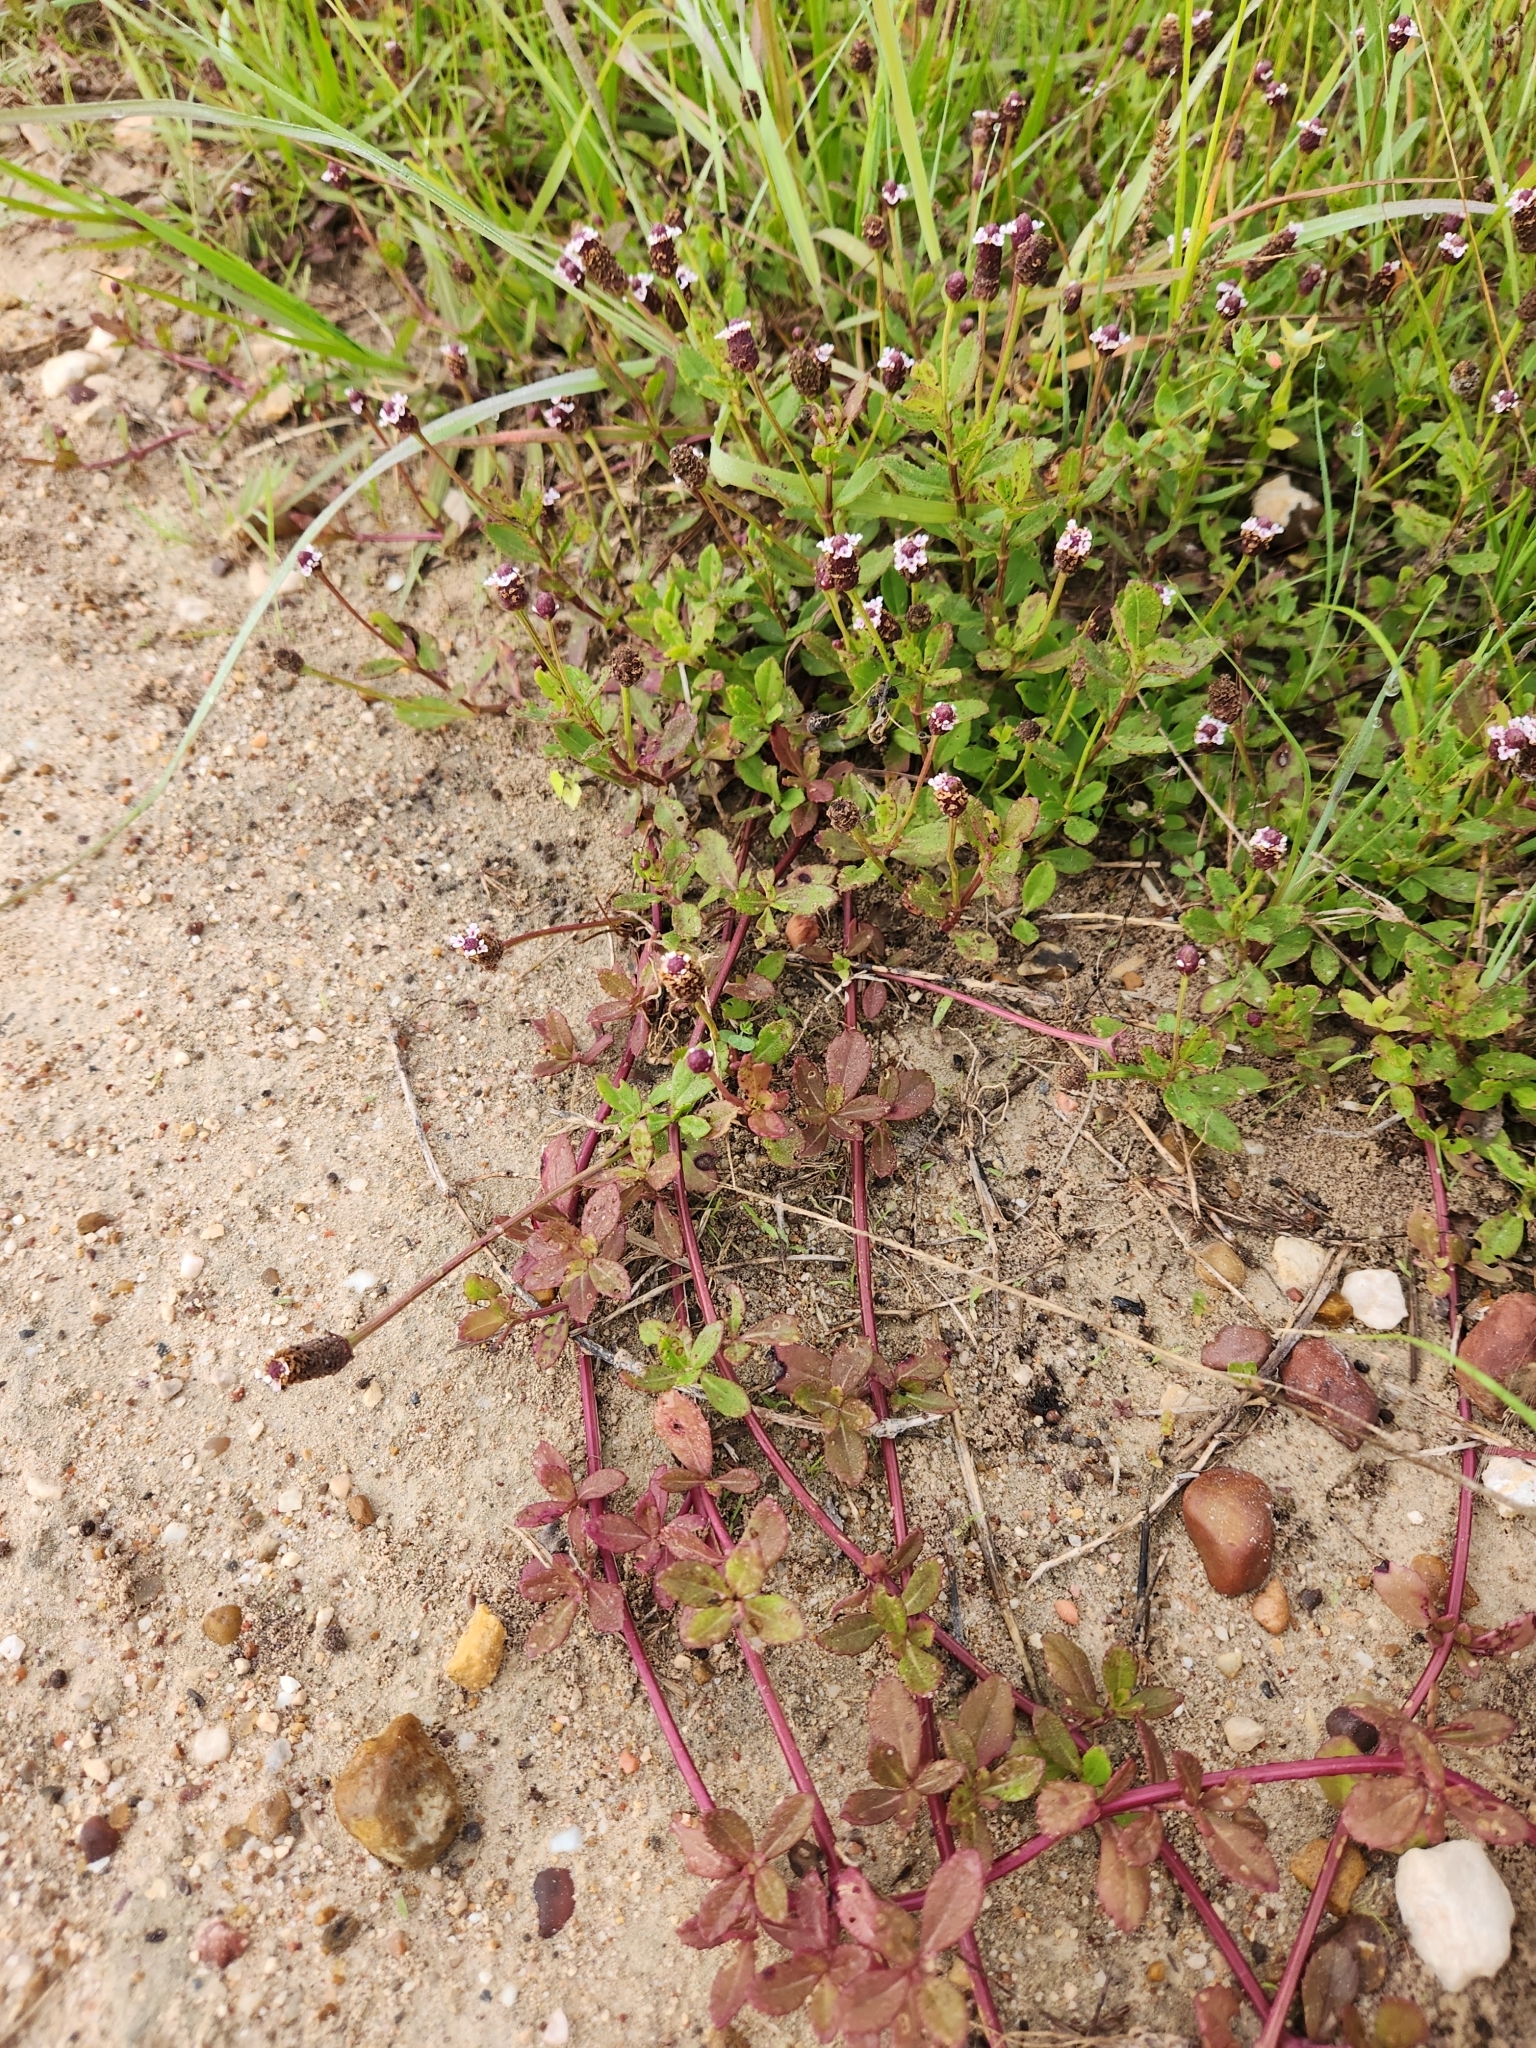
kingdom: Plantae
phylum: Tracheophyta
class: Magnoliopsida
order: Lamiales
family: Verbenaceae
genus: Phyla
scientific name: Phyla nodiflora
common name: Frogfruit
